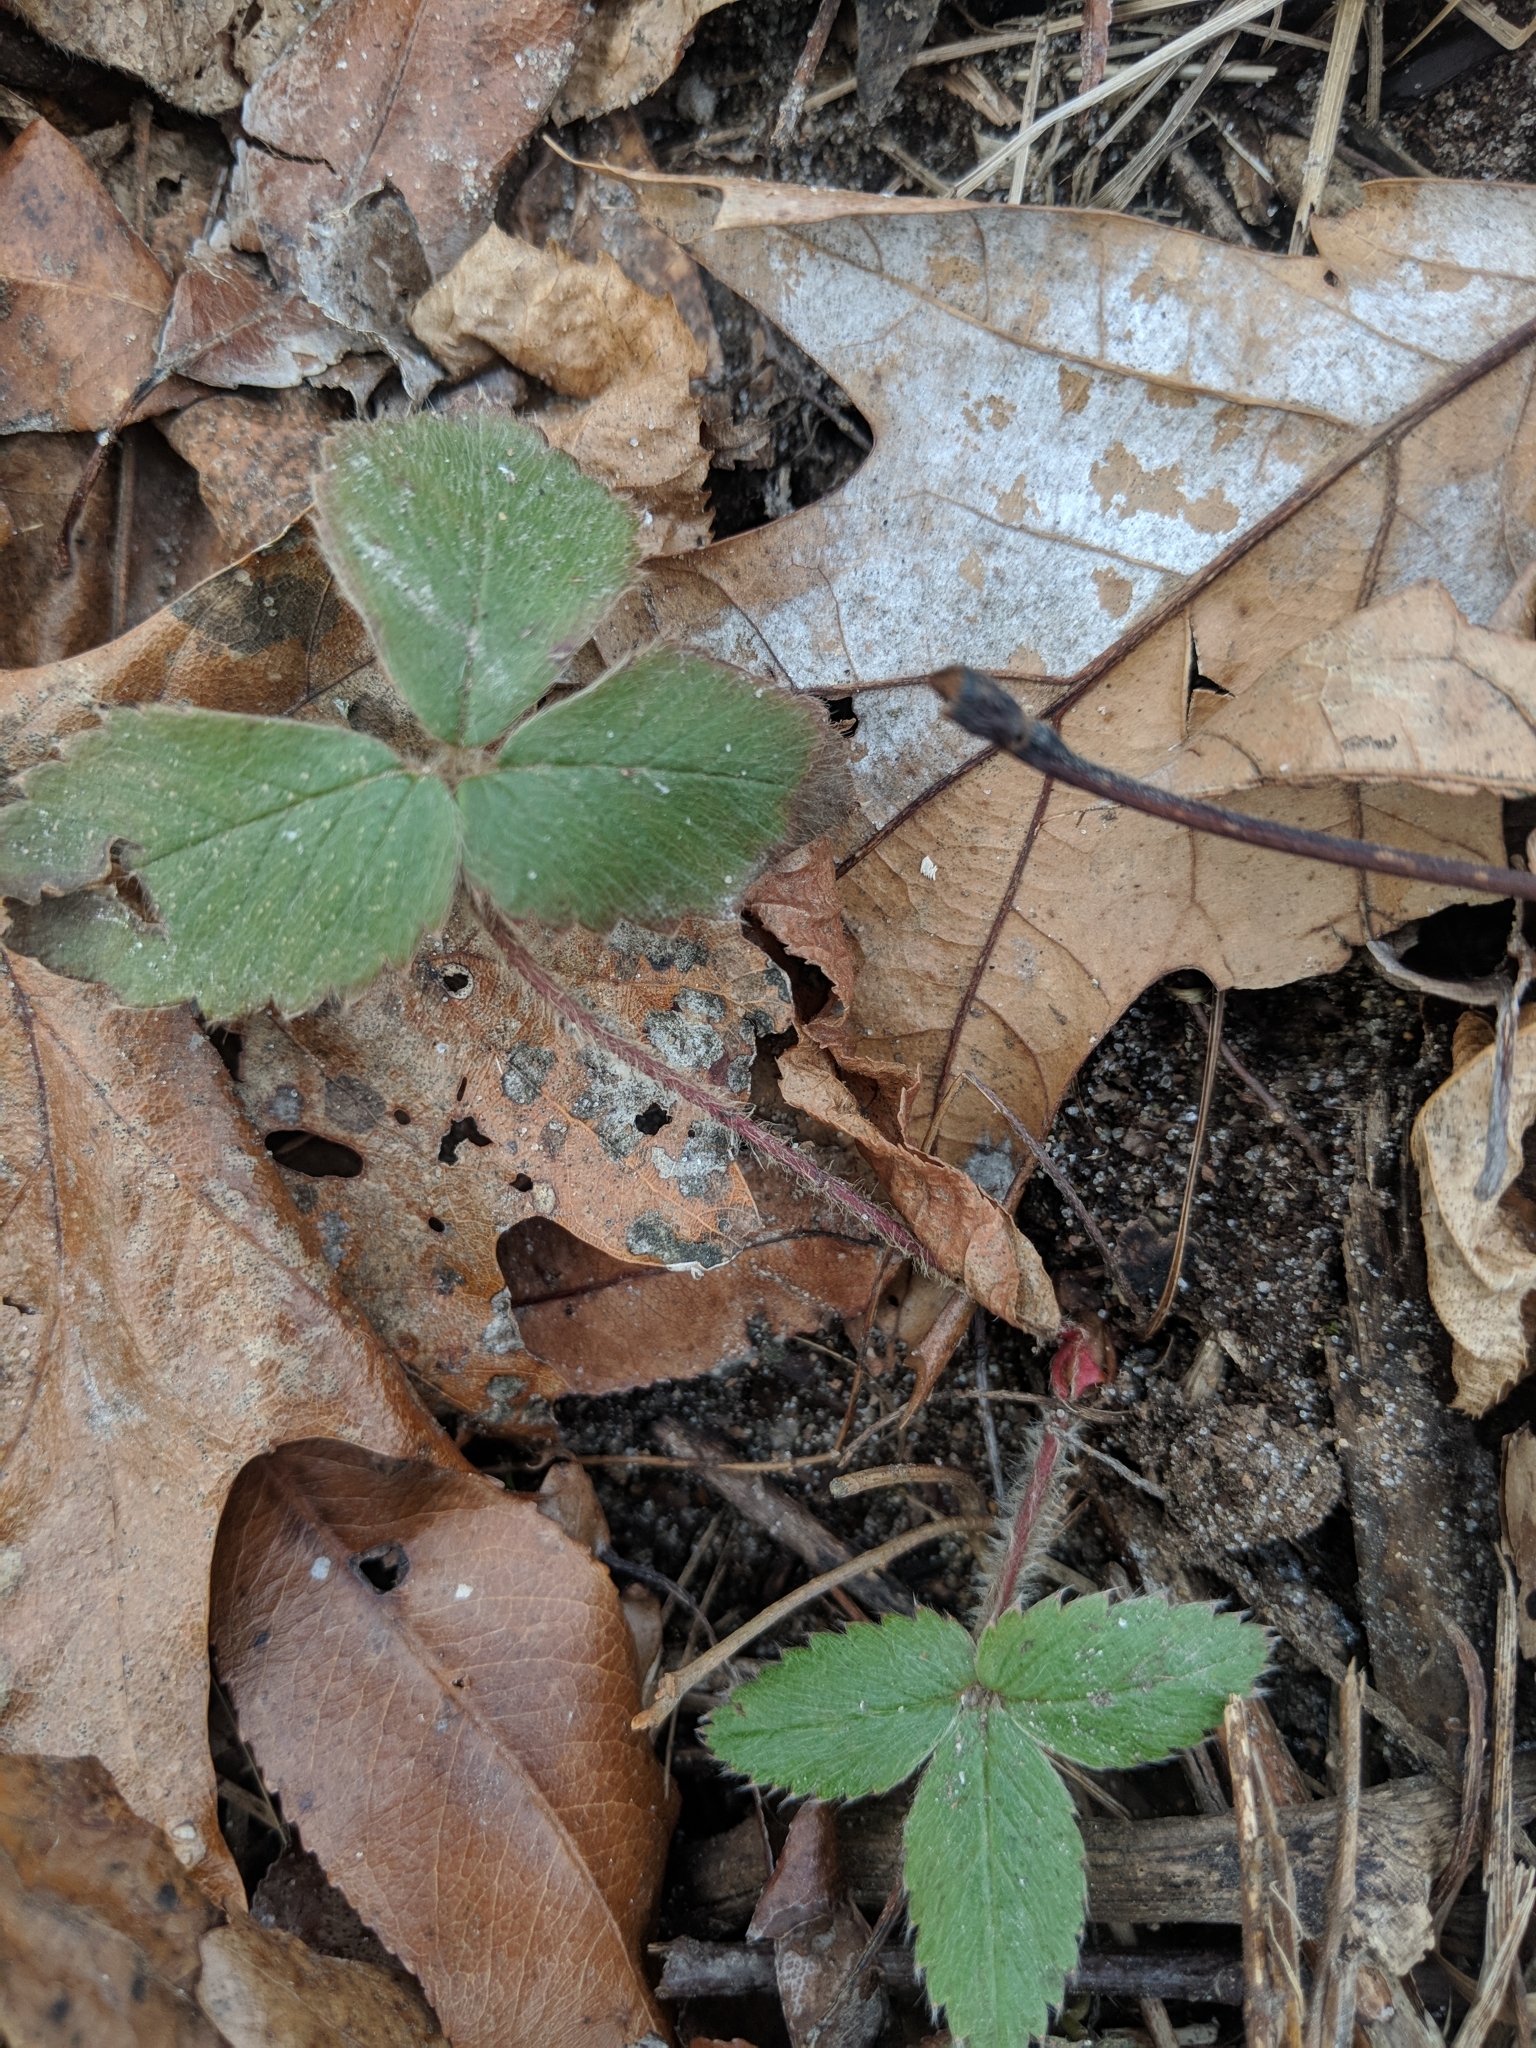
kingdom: Plantae
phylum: Tracheophyta
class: Magnoliopsida
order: Rosales
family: Rosaceae
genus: Fragaria
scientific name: Fragaria virginiana
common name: Thickleaved wild strawberry
